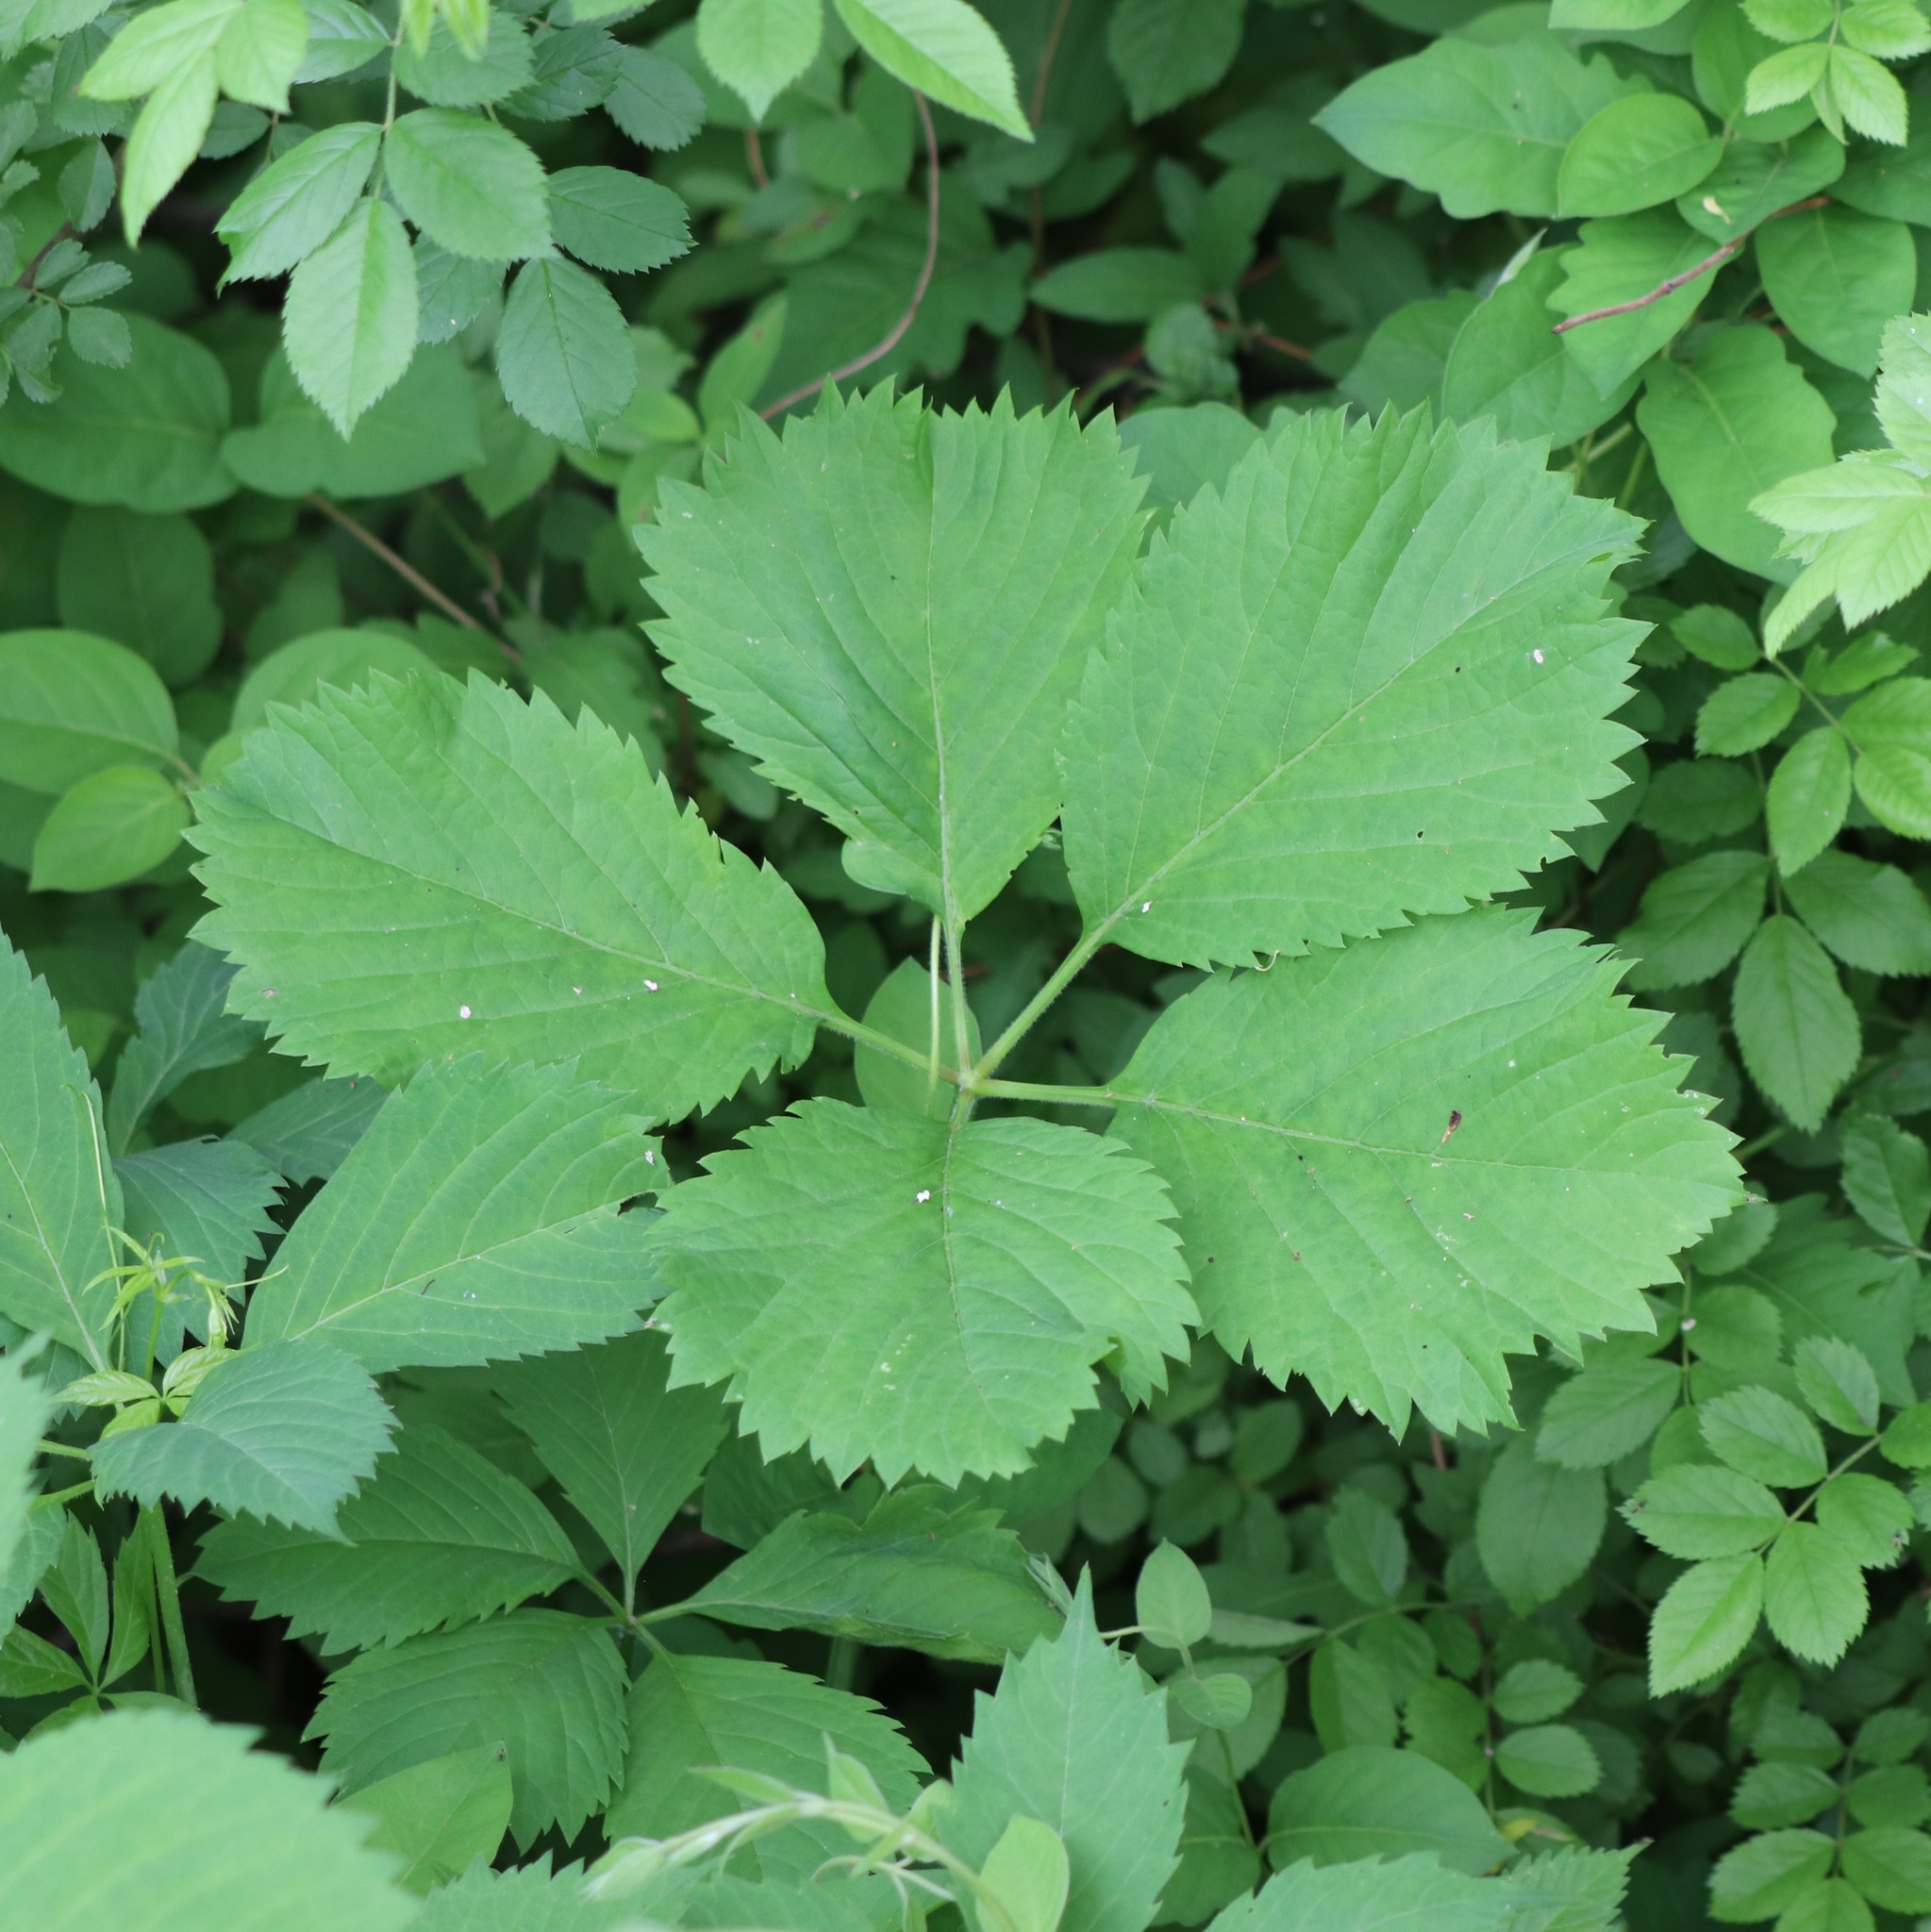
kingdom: Plantae
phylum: Tracheophyta
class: Magnoliopsida
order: Vitales
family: Vitaceae
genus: Parthenocissus
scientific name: Parthenocissus inserta
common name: False virginia-creeper
